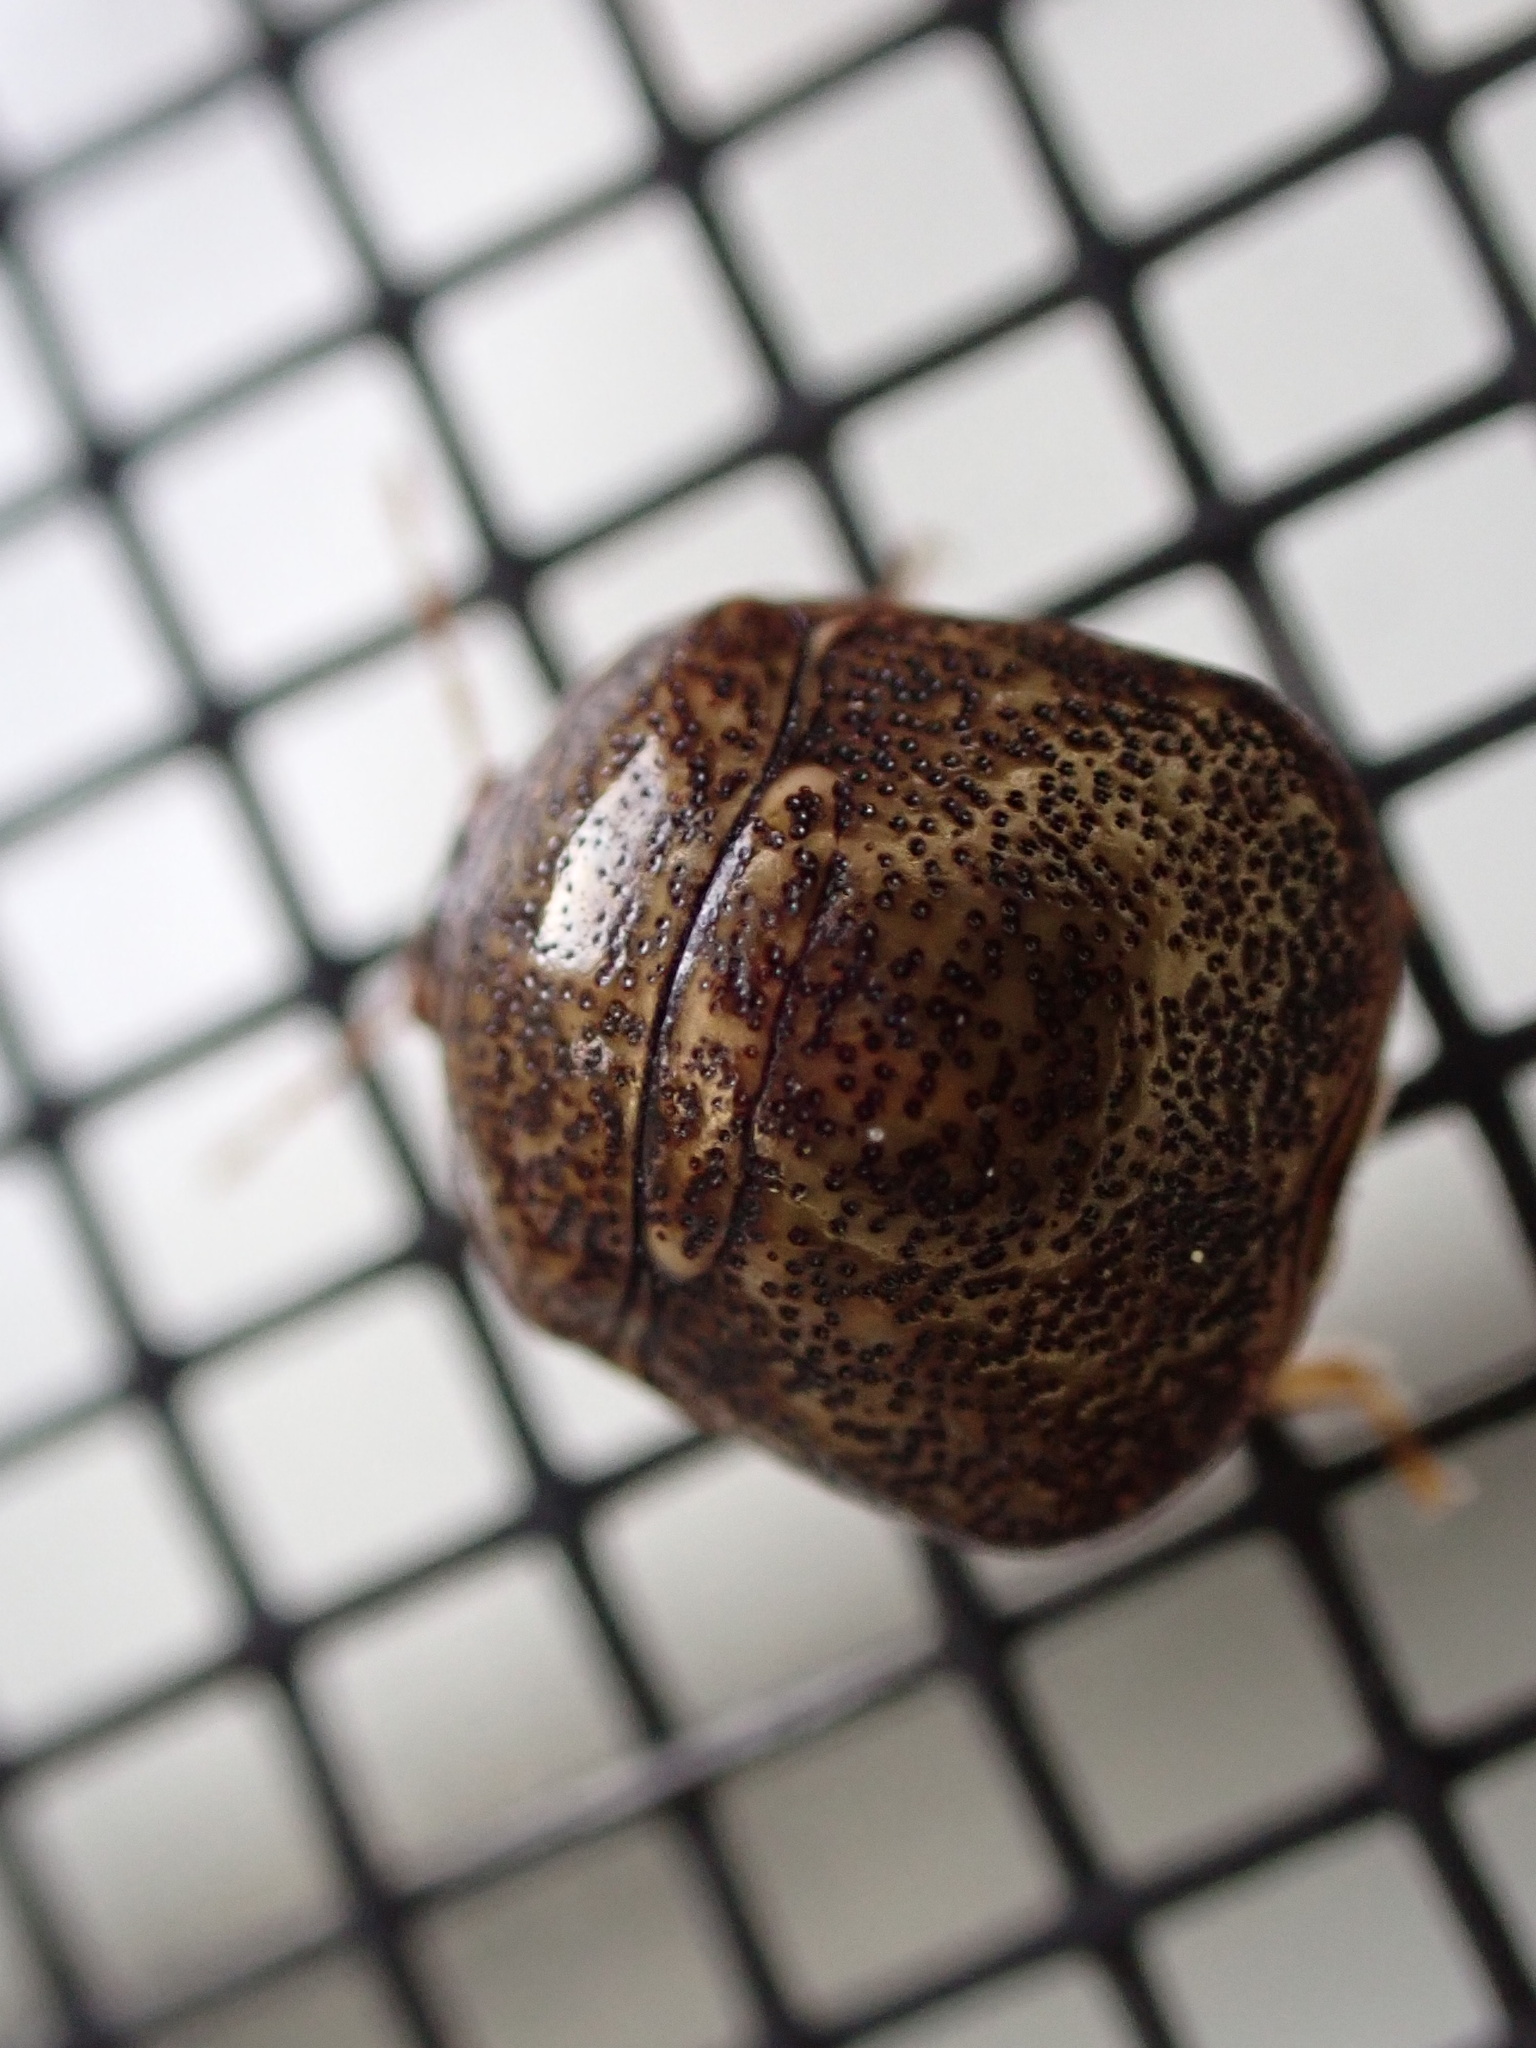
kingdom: Animalia
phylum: Arthropoda
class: Insecta
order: Hemiptera
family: Plataspidae
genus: Megacopta
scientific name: Megacopta cribraria
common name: Bean plataspid
